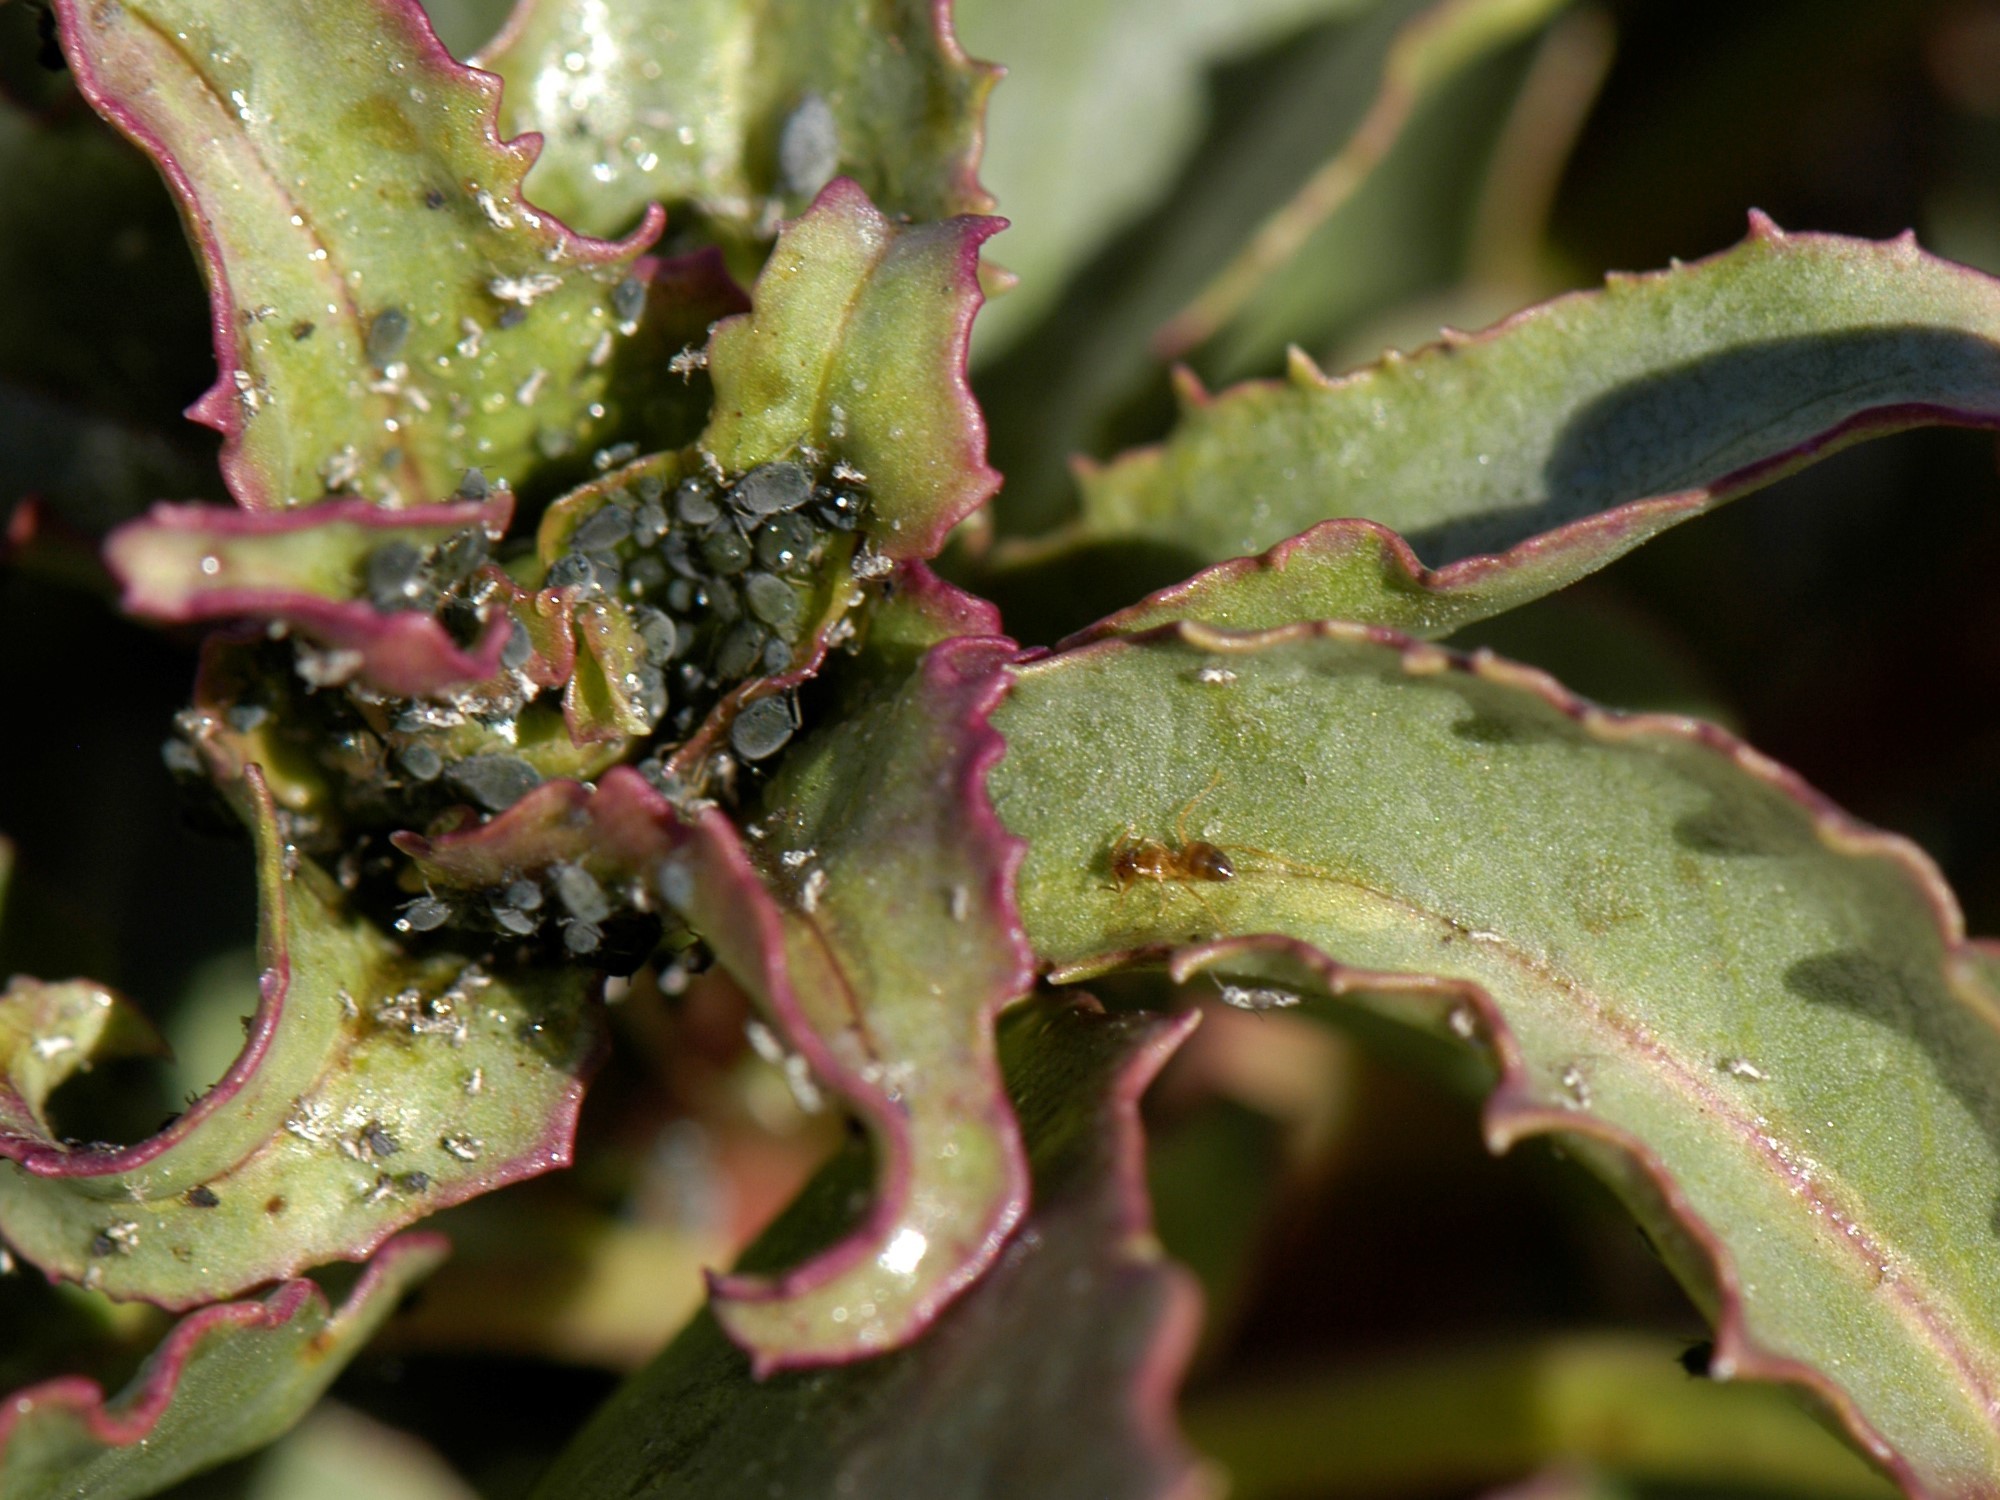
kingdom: Animalia
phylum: Arthropoda
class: Insecta
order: Hymenoptera
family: Formicidae
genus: Nylanderia
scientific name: Nylanderia
